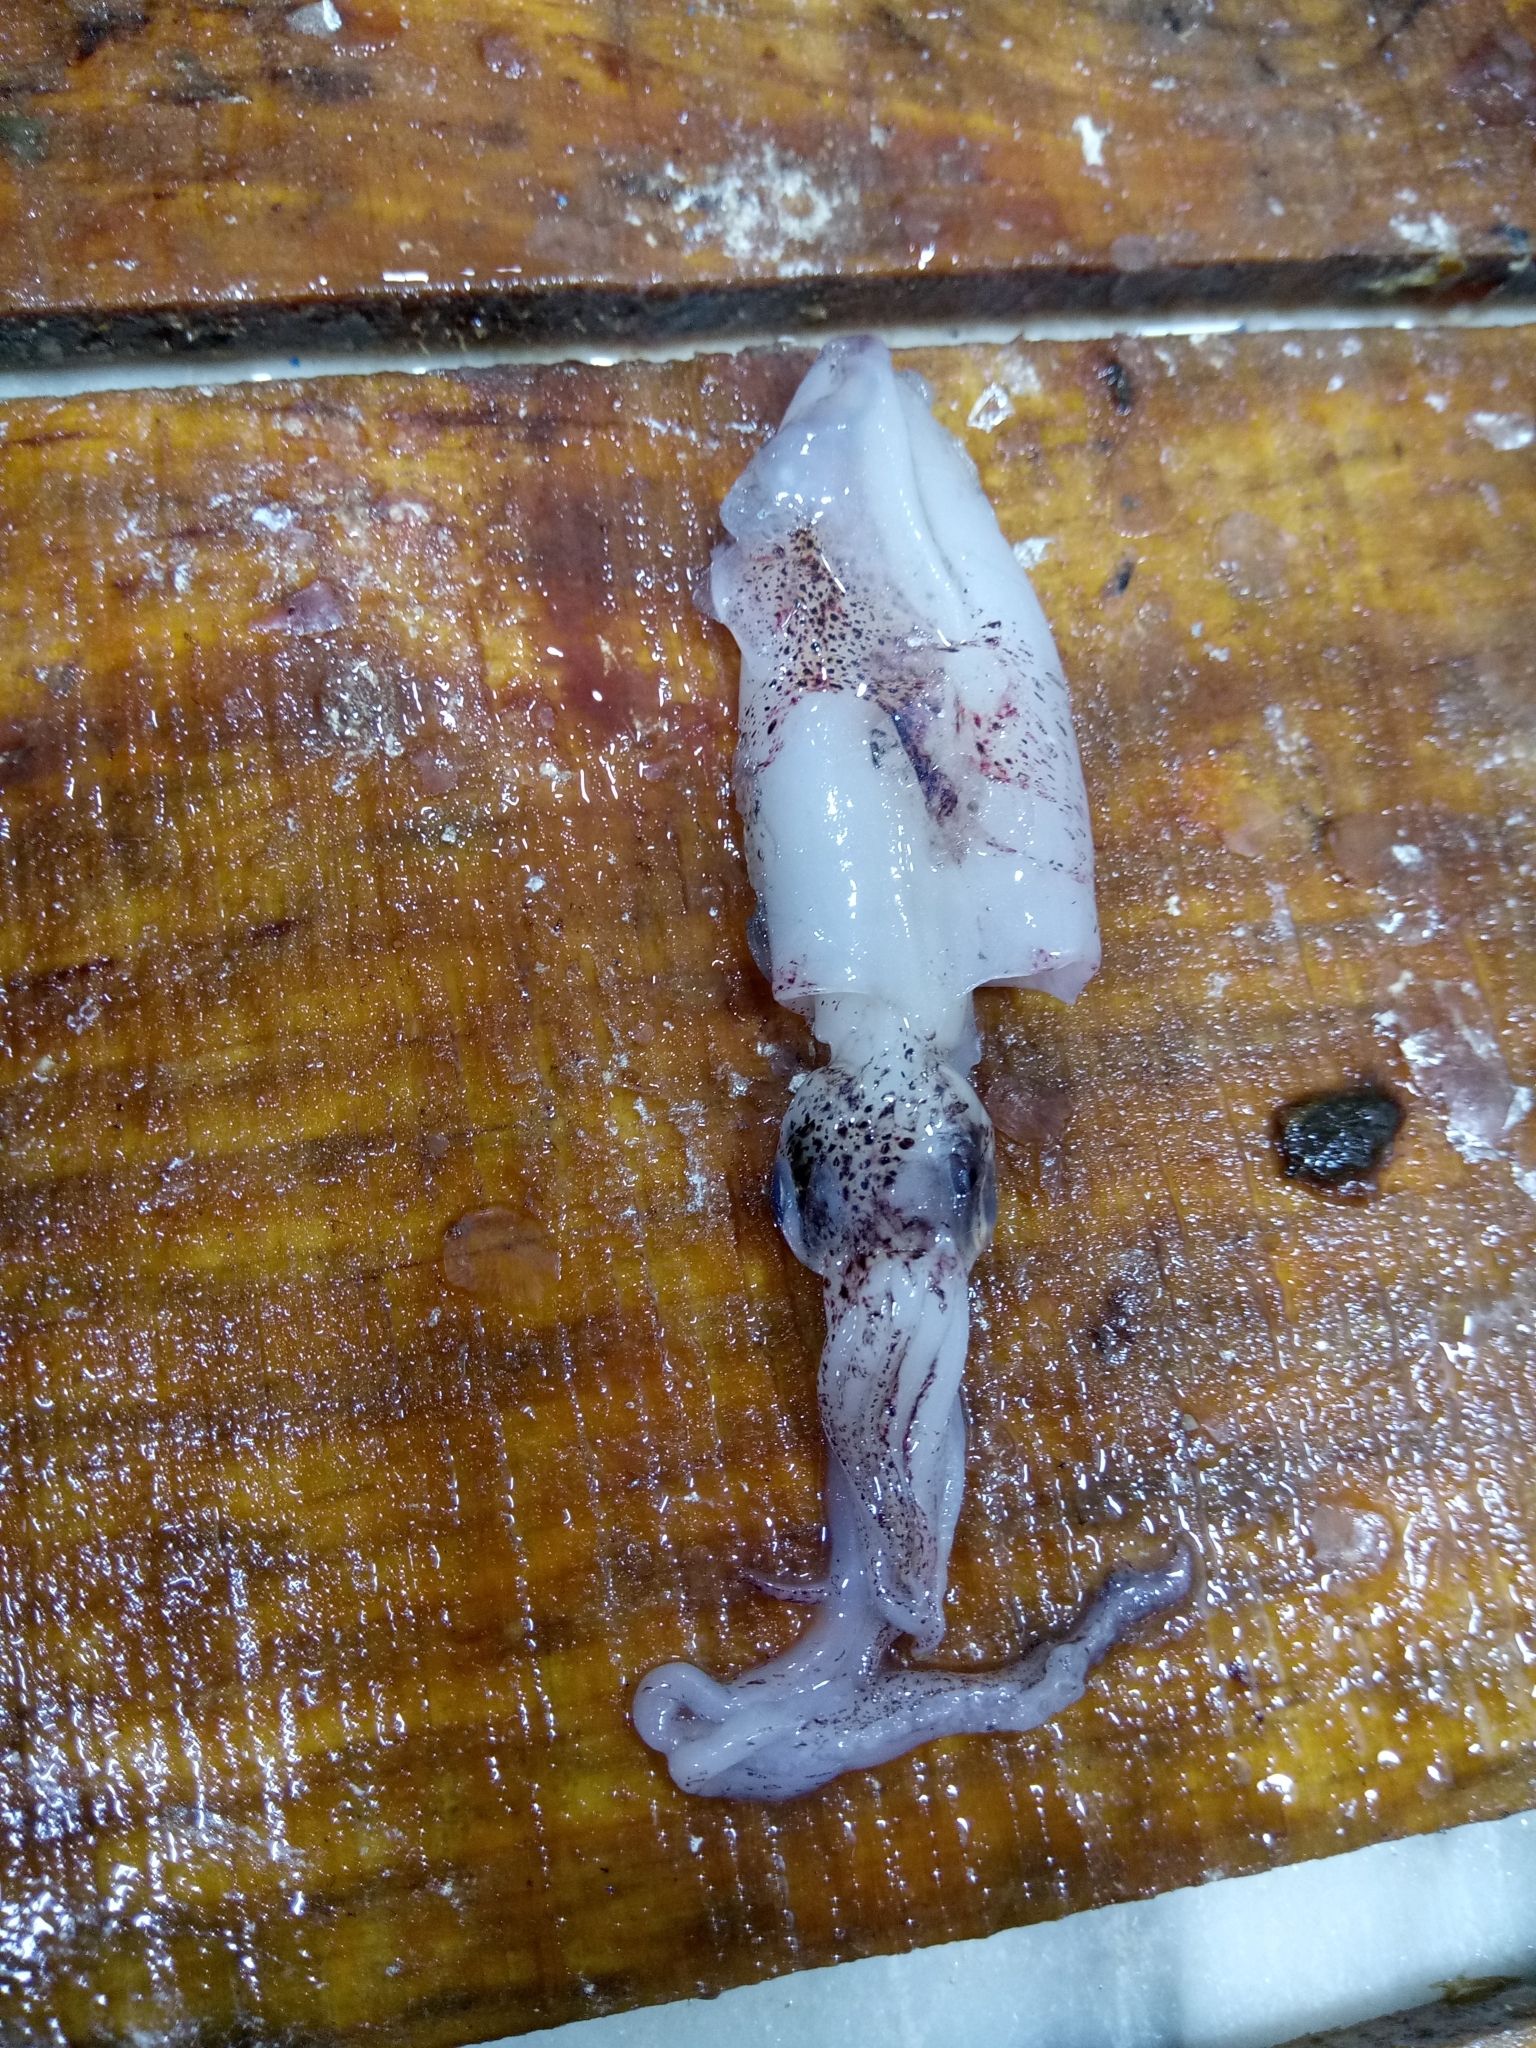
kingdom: Animalia
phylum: Mollusca
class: Cephalopoda
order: Myopsida
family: Loliginidae
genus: Loligo
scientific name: Loligo vulgaris
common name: European squid
